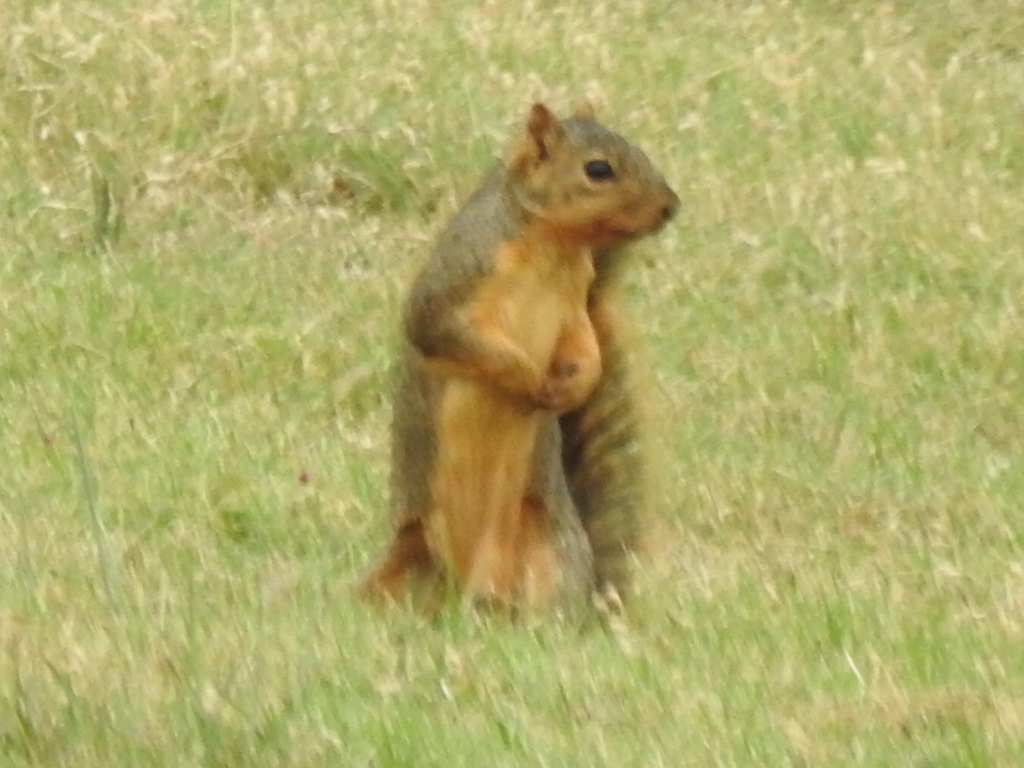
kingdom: Animalia
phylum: Chordata
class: Mammalia
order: Rodentia
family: Sciuridae
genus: Sciurus
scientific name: Sciurus niger
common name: Fox squirrel
